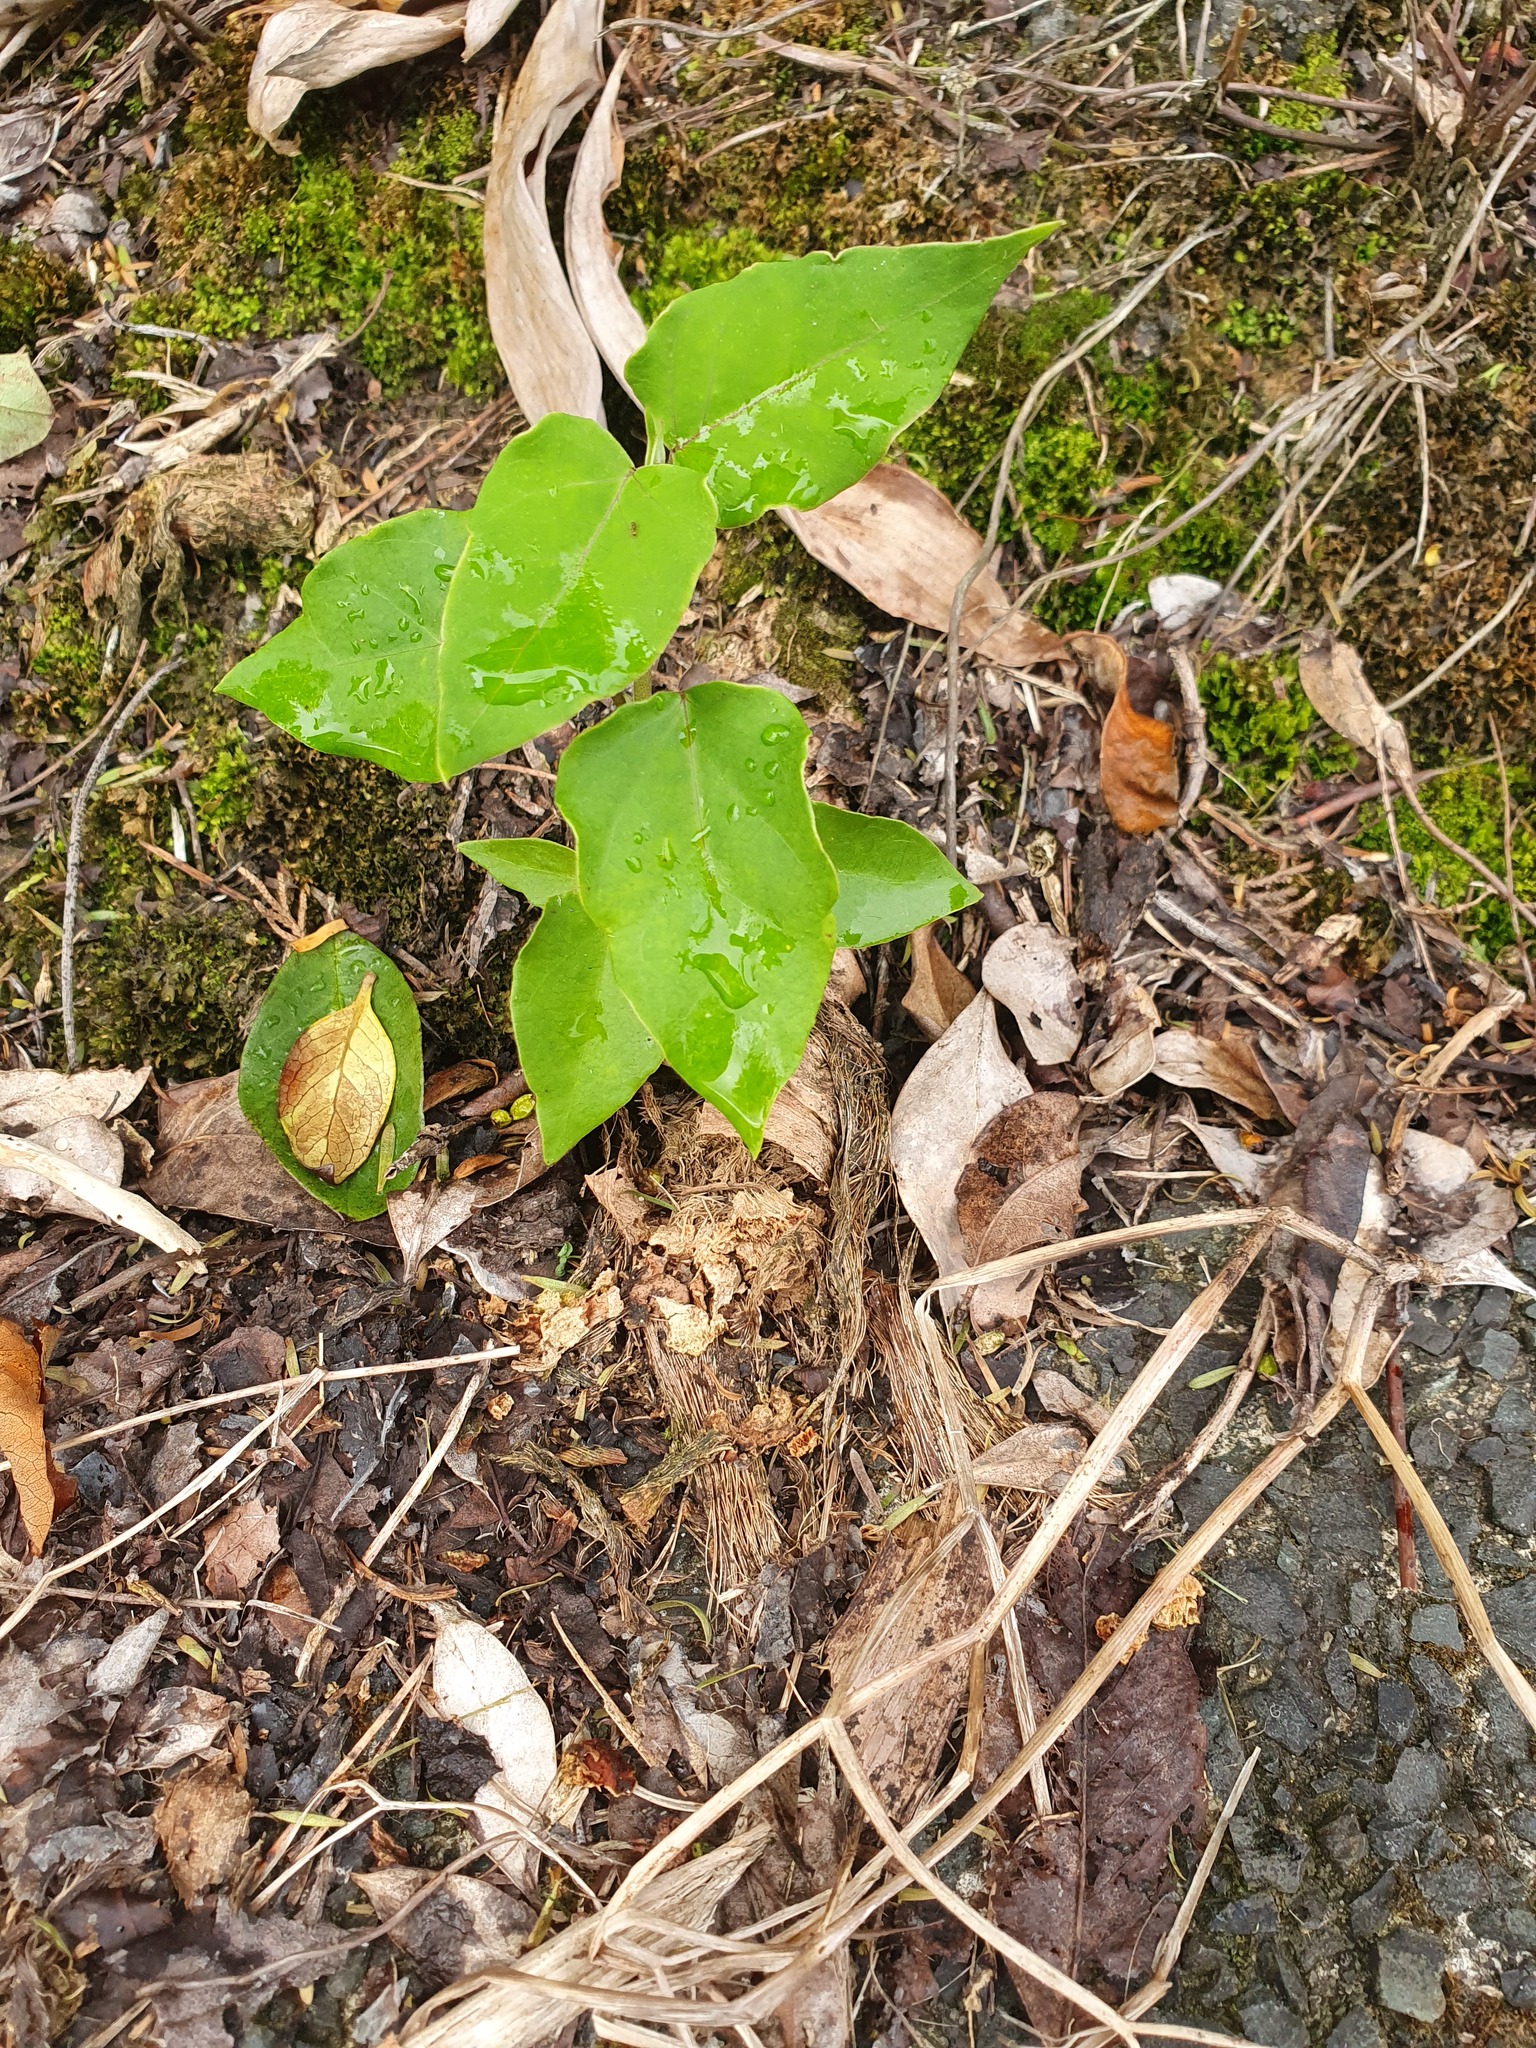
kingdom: Plantae
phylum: Tracheophyta
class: Magnoliopsida
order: Gentianales
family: Apocynaceae
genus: Araujia
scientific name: Araujia sericifera
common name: White bladderflower
